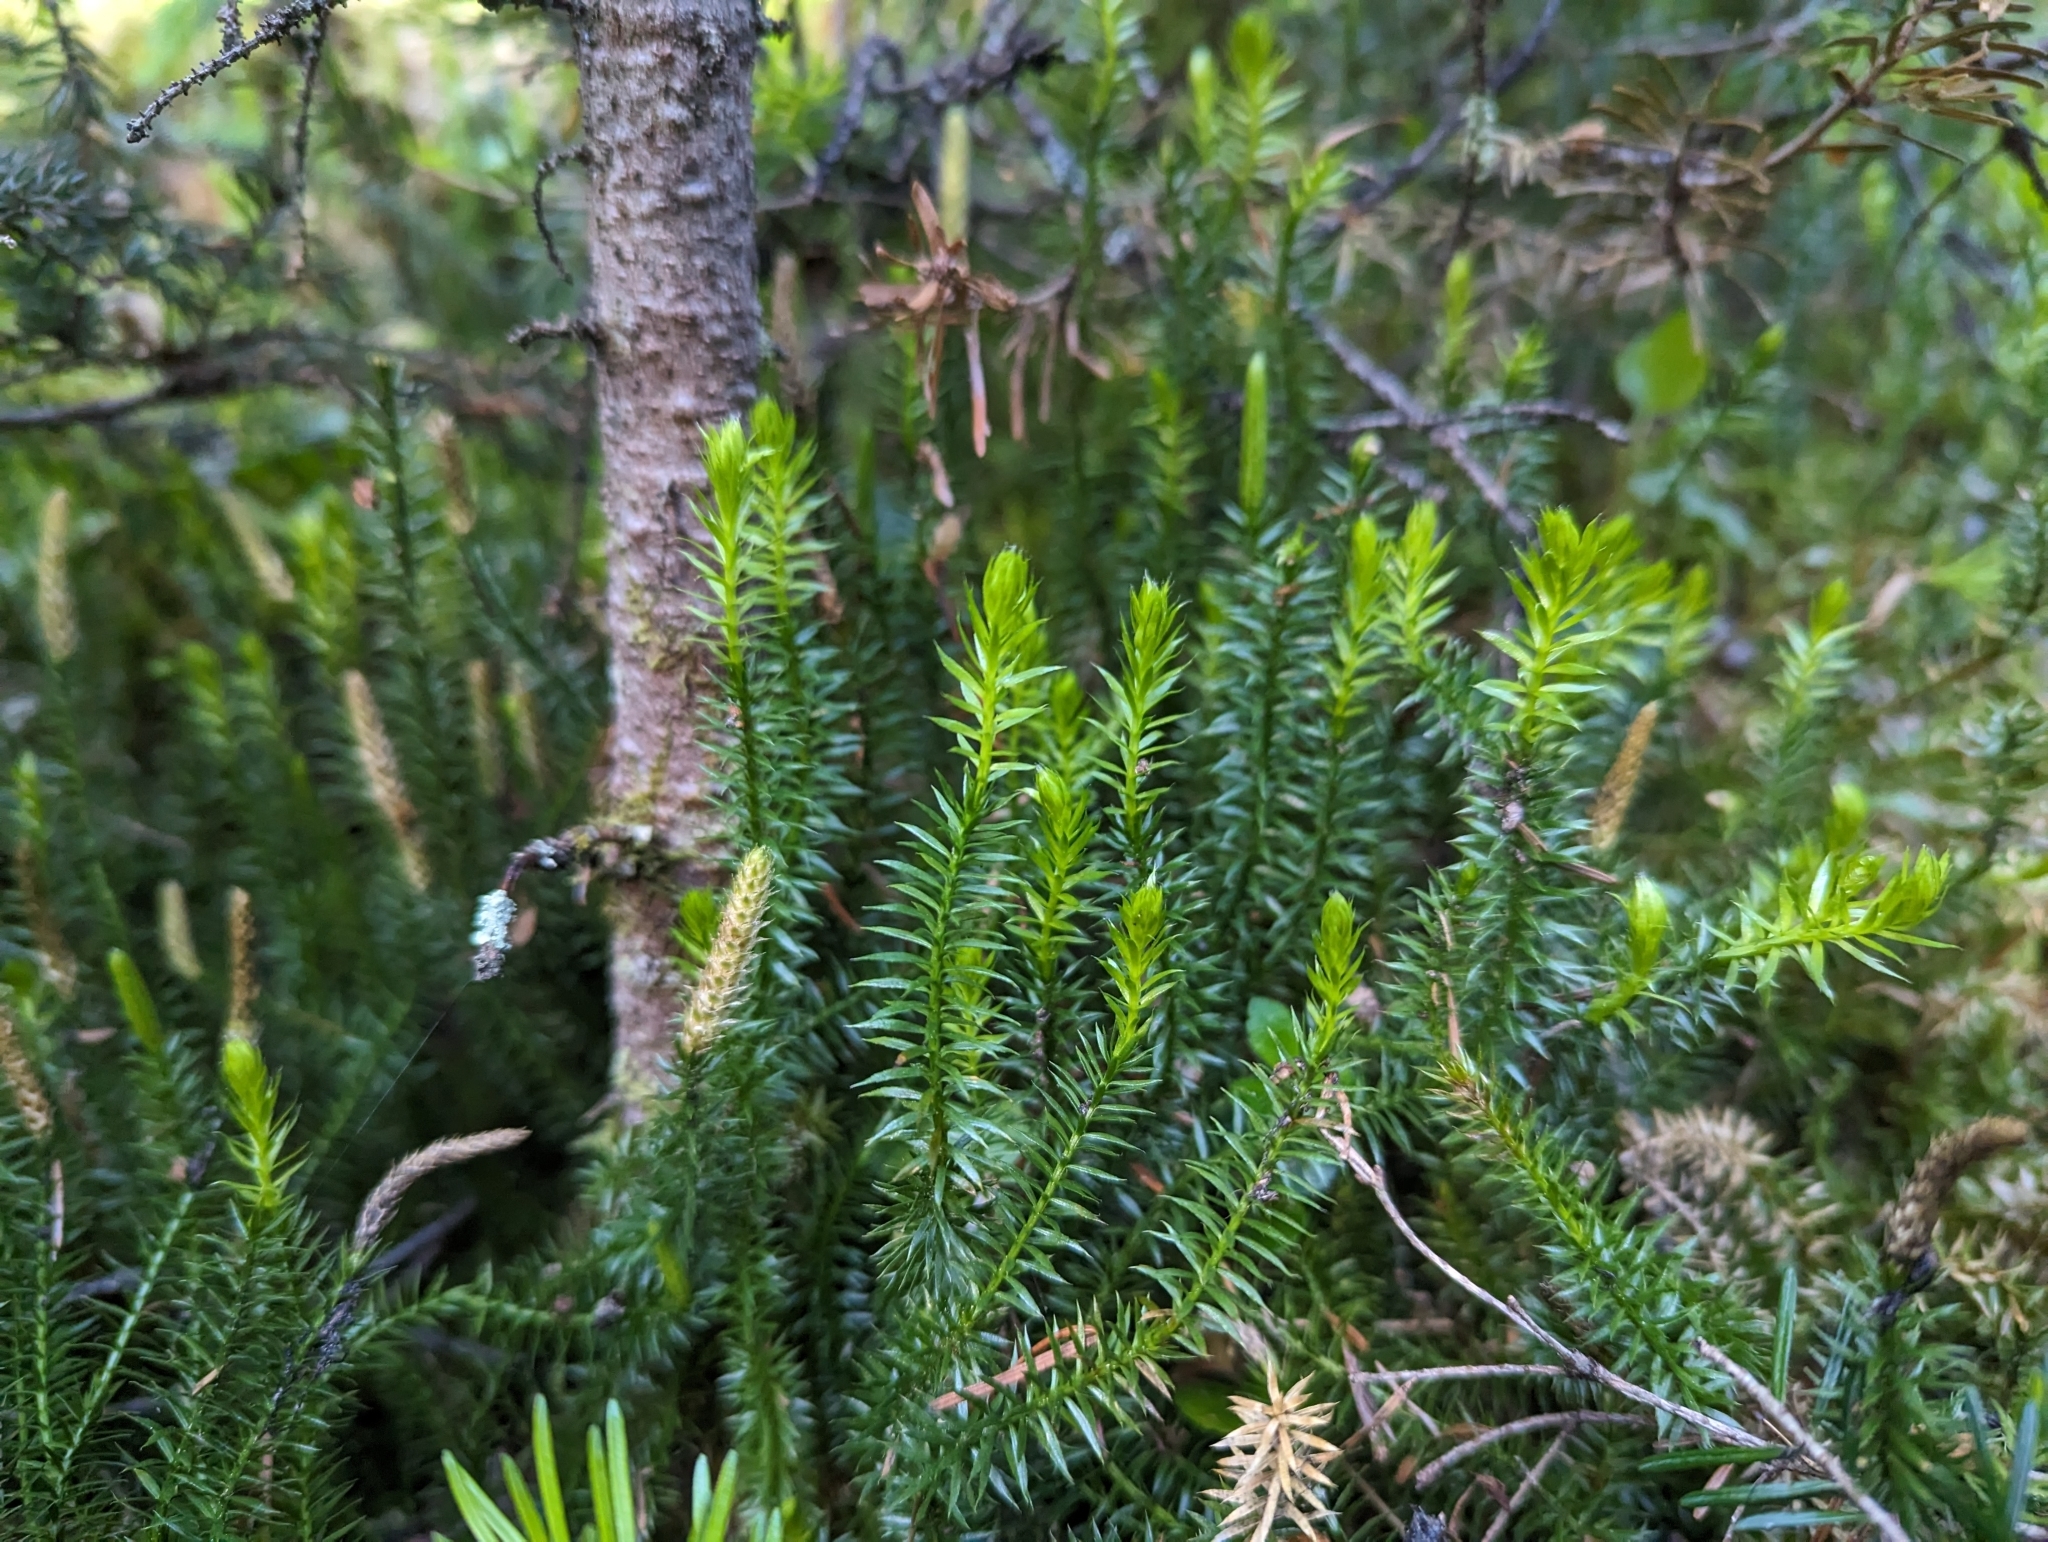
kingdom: Plantae
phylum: Tracheophyta
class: Lycopodiopsida
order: Lycopodiales
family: Lycopodiaceae
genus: Spinulum
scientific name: Spinulum annotinum
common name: Interrupted club-moss
